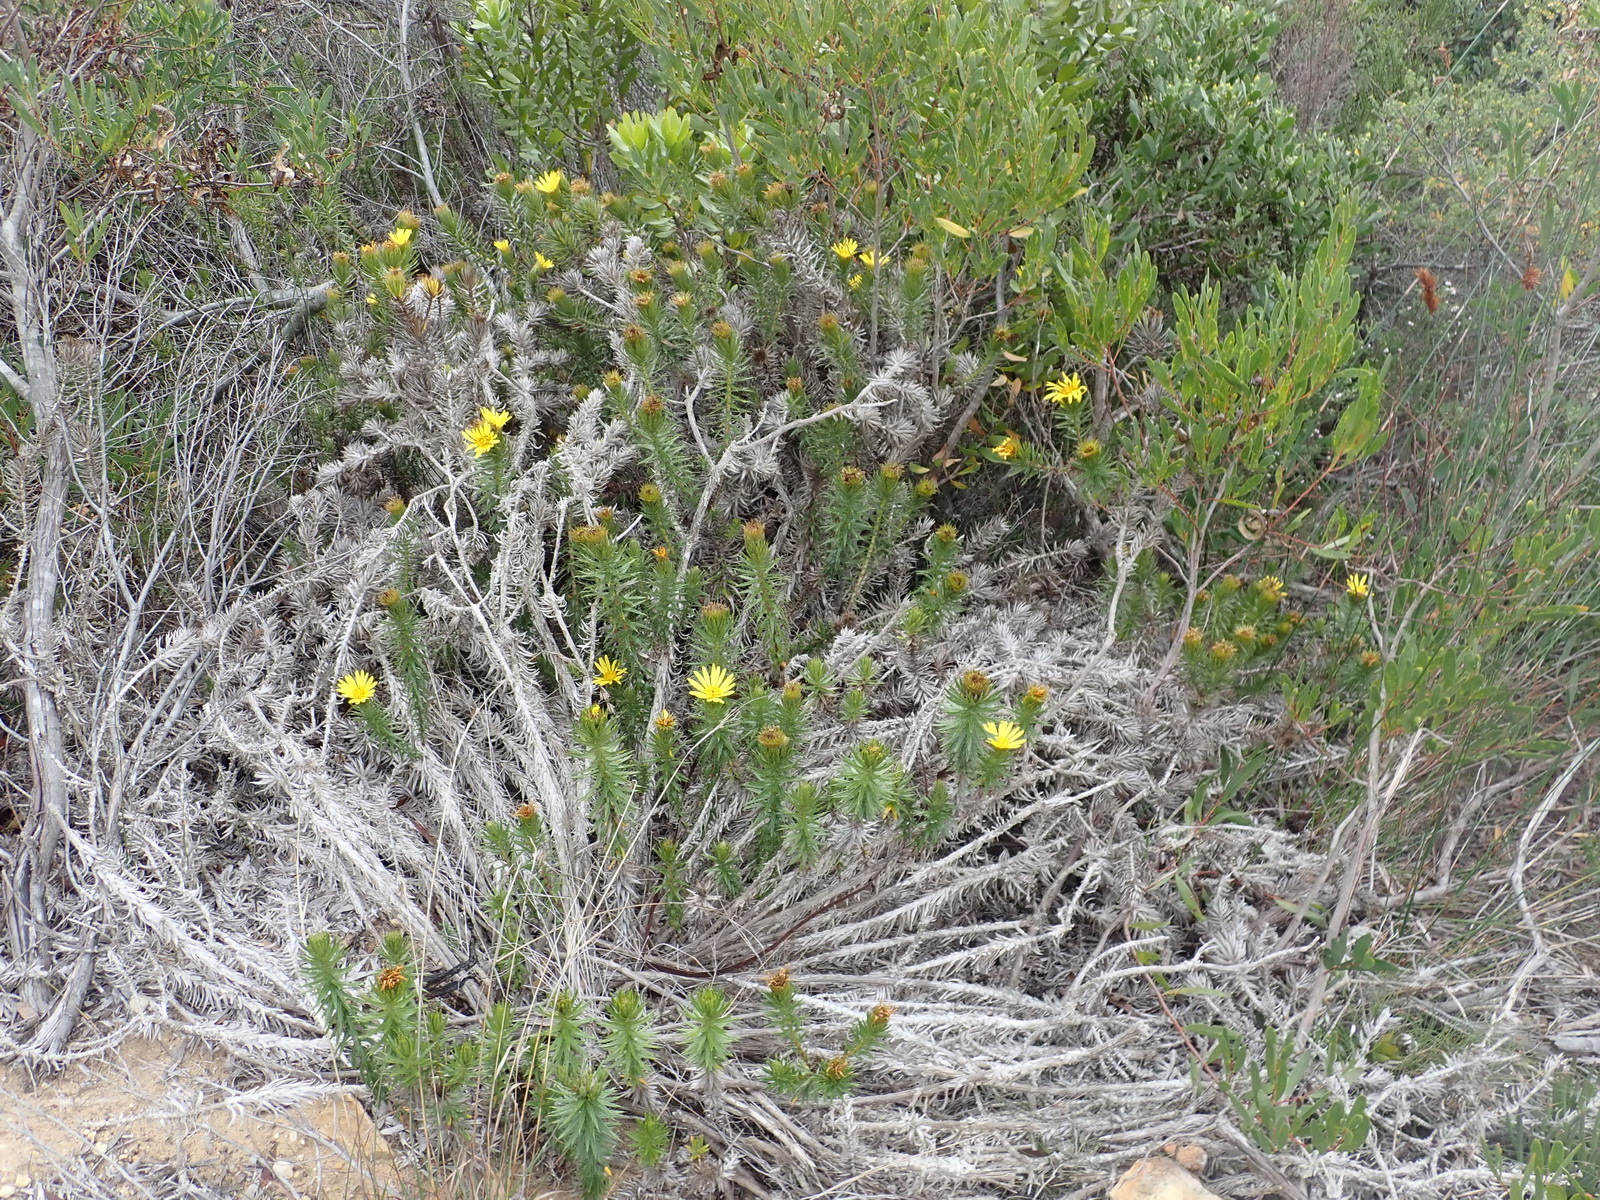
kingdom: Plantae
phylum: Tracheophyta
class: Magnoliopsida
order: Asterales
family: Asteraceae
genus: Cullumia
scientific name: Cullumia carlinoides
